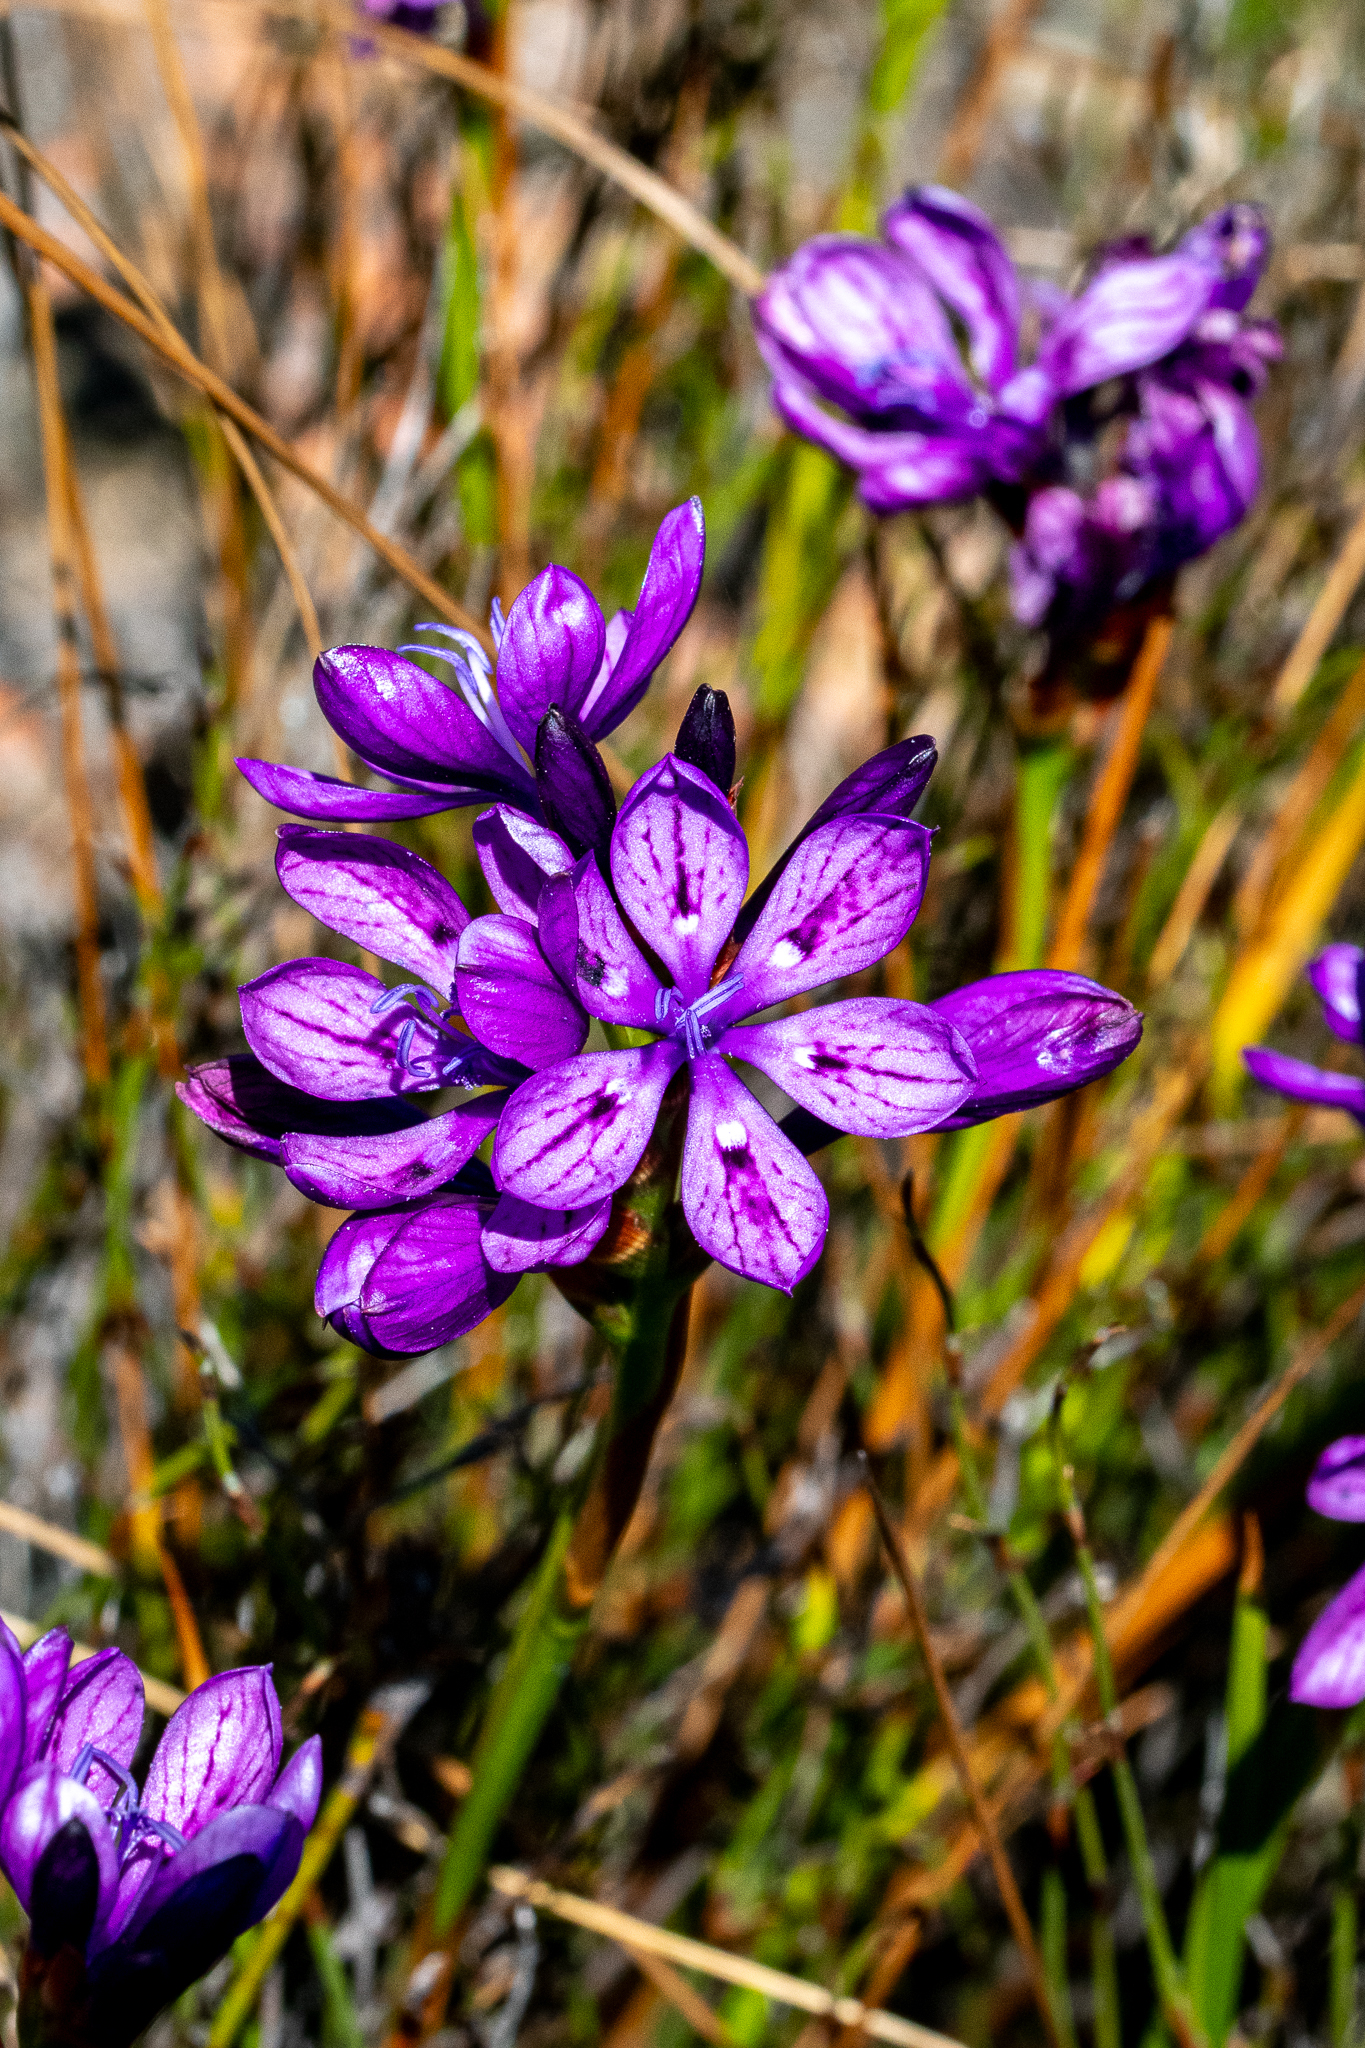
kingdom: Plantae
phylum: Tracheophyta
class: Liliopsida
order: Asparagales
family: Iridaceae
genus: Thereianthus
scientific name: Thereianthus bracteolatus
